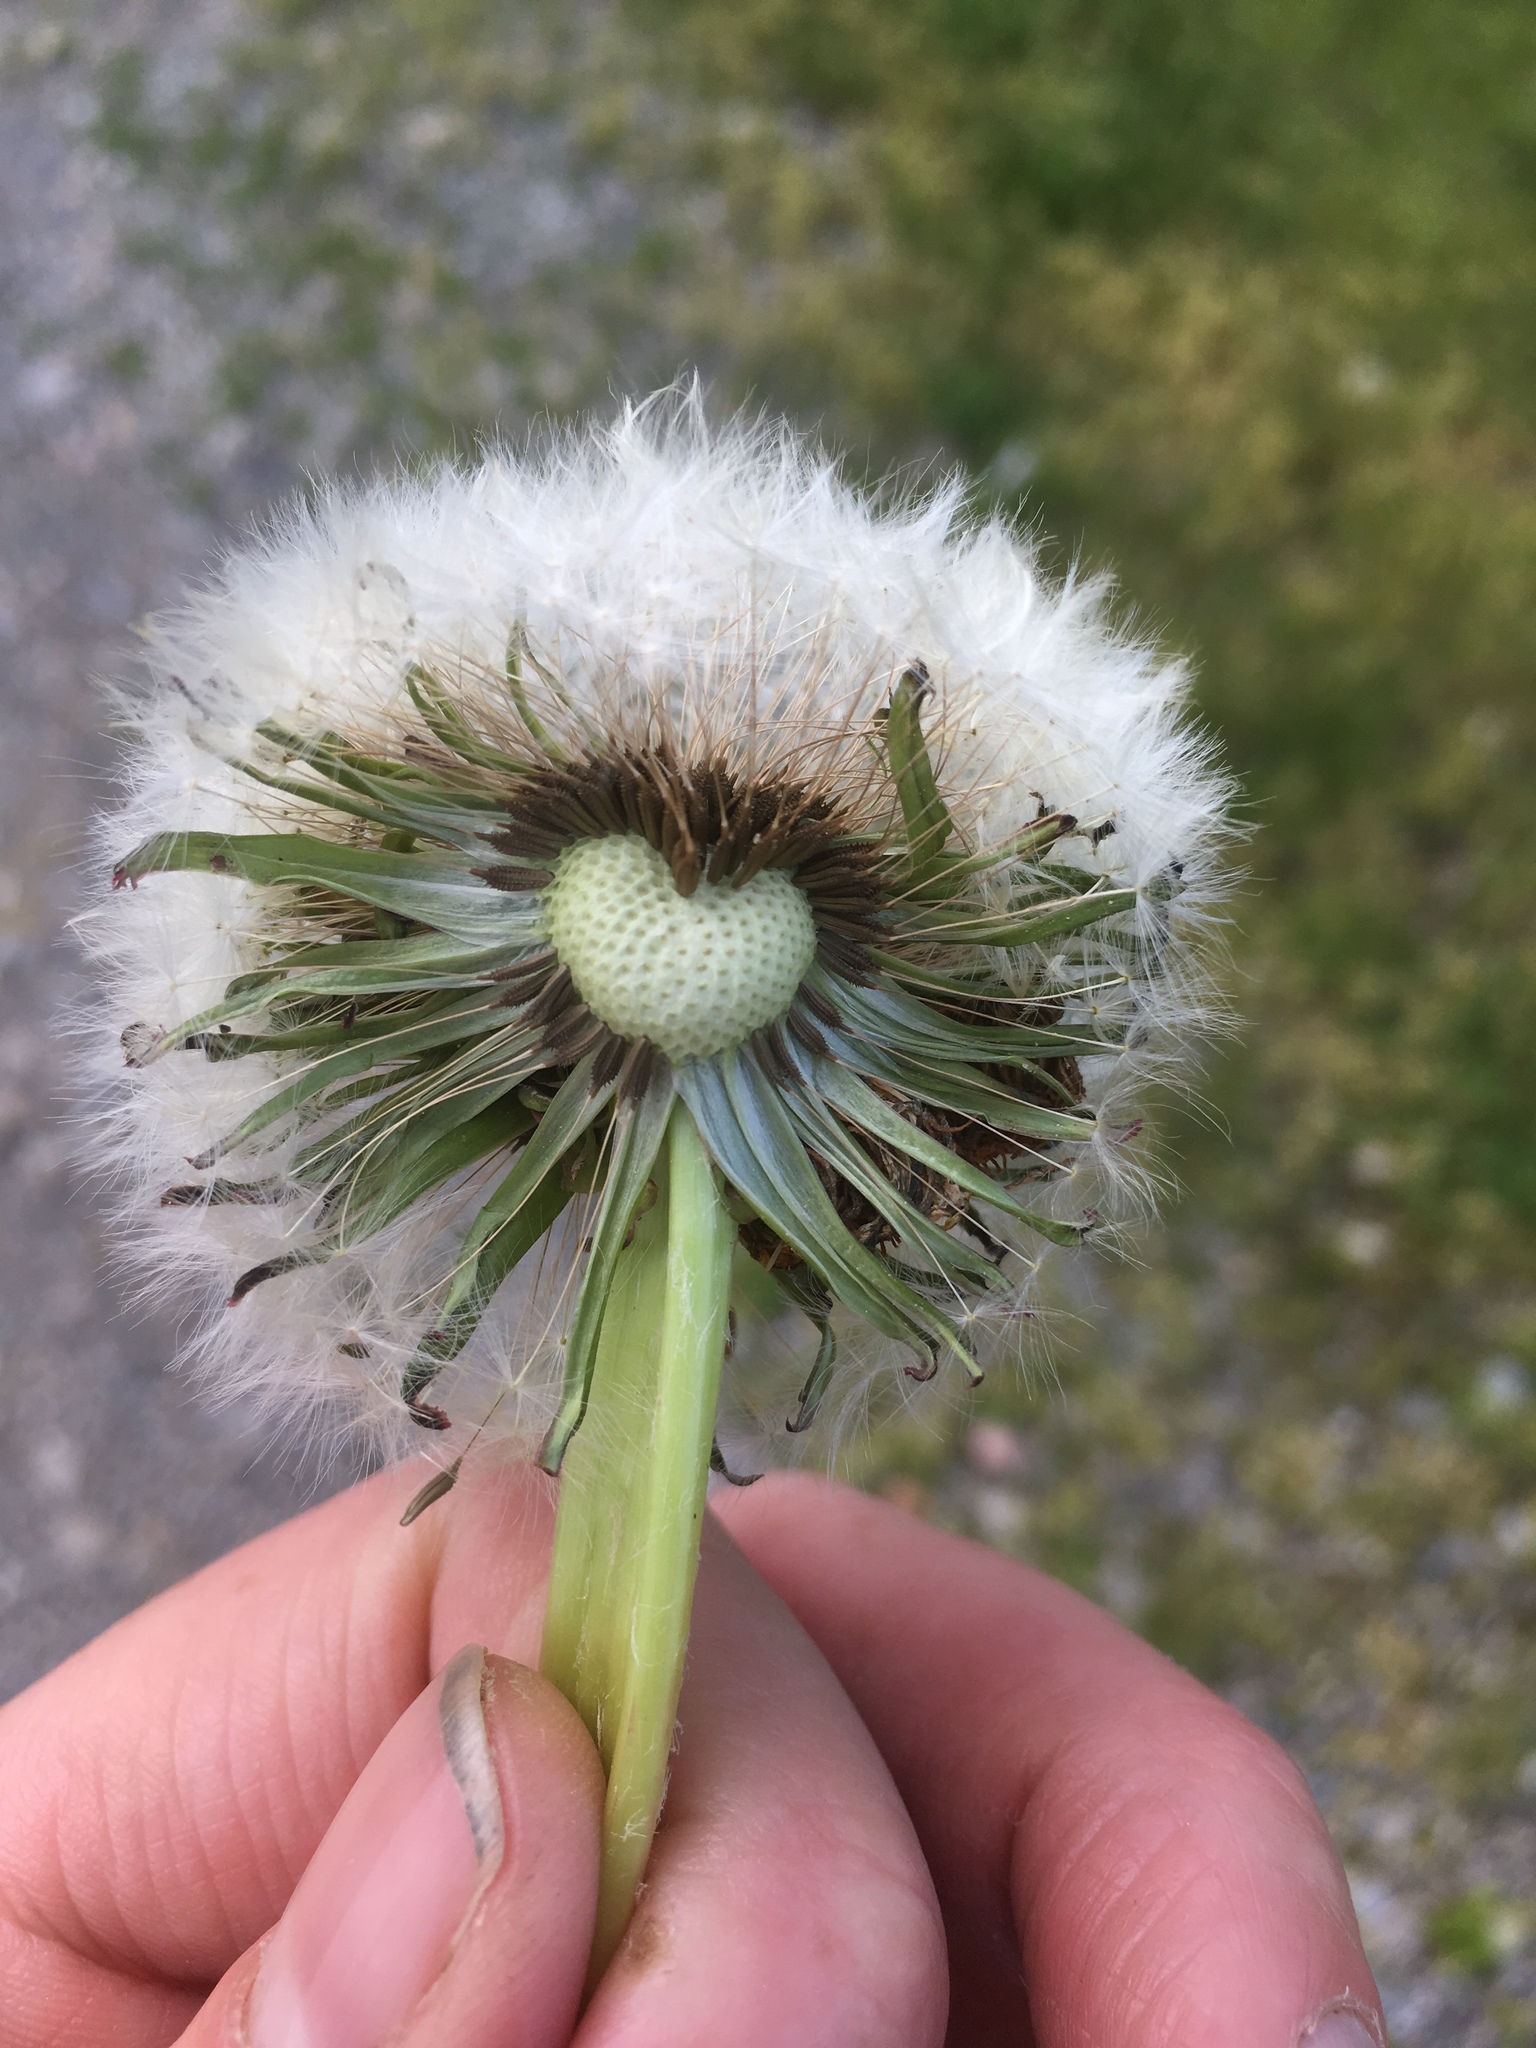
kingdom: Plantae
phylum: Tracheophyta
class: Magnoliopsida
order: Asterales
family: Asteraceae
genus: Taraxacum
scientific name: Taraxacum officinale
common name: Common dandelion
